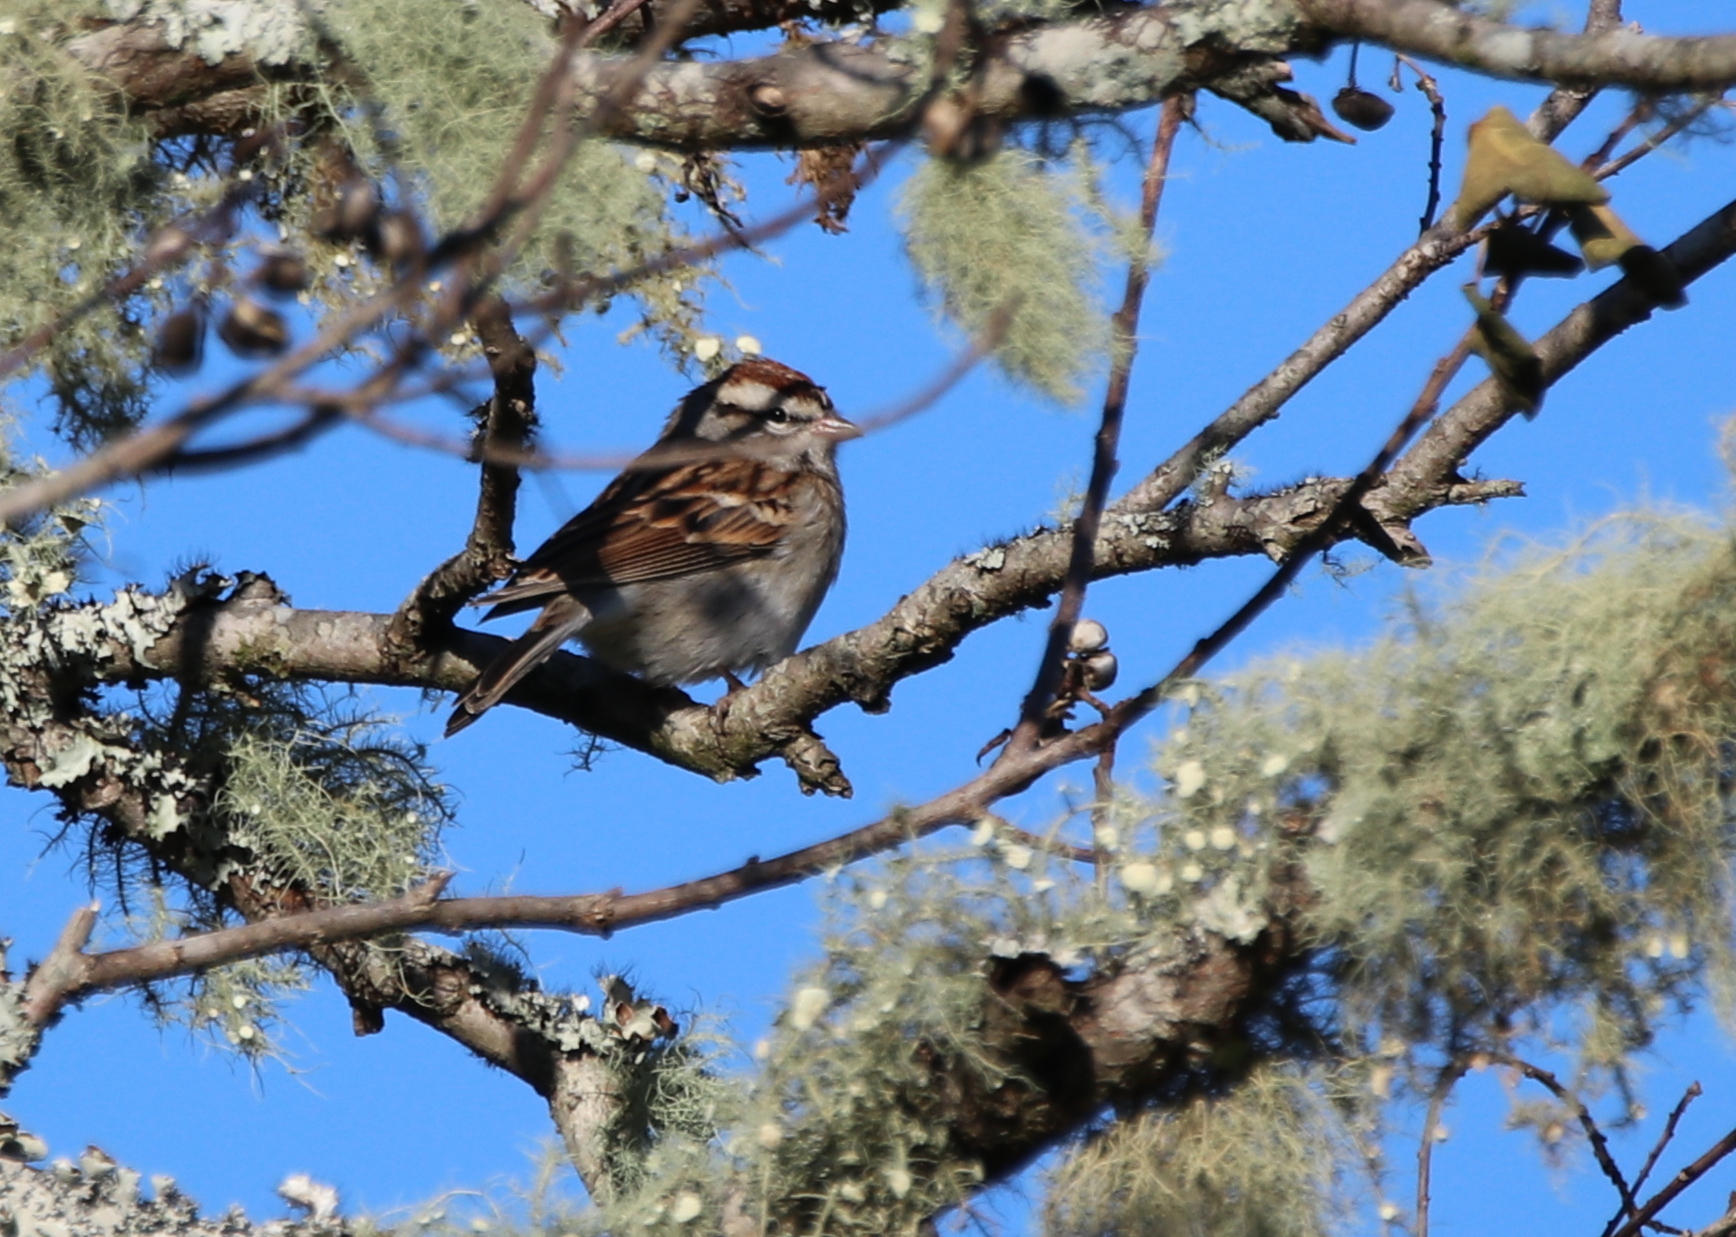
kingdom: Animalia
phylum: Chordata
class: Aves
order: Passeriformes
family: Passerellidae
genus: Spizella
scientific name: Spizella passerina
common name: Chipping sparrow
